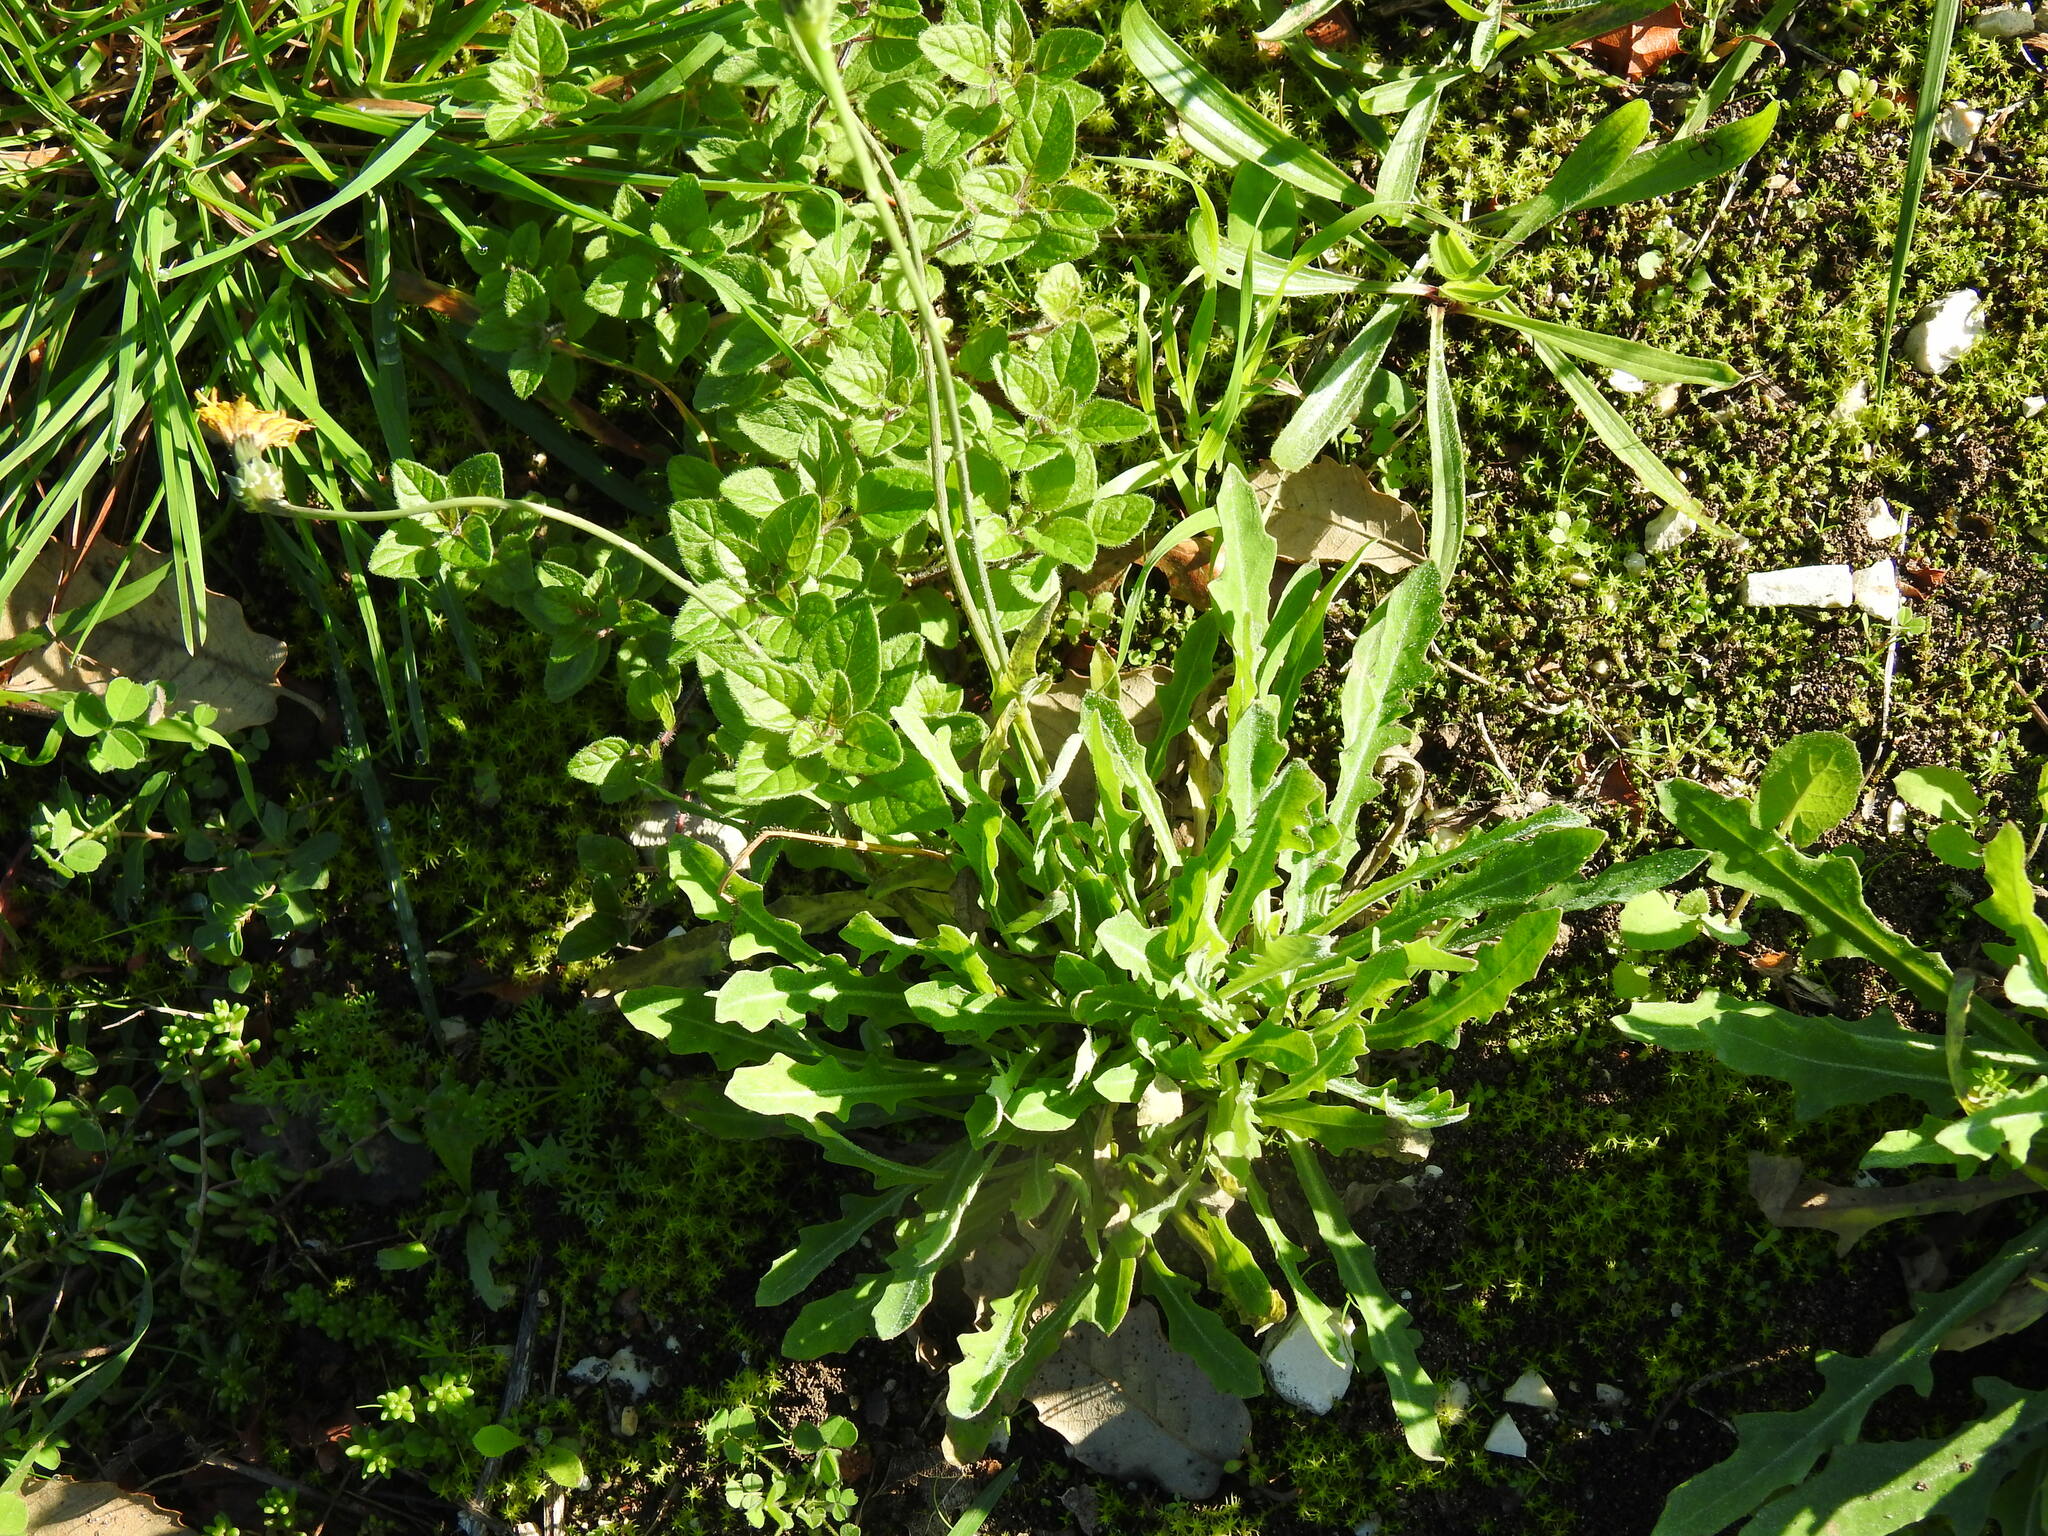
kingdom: Plantae
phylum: Tracheophyta
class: Magnoliopsida
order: Asterales
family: Asteraceae
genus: Reichardia
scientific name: Reichardia picroides
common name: Common brighteyes
